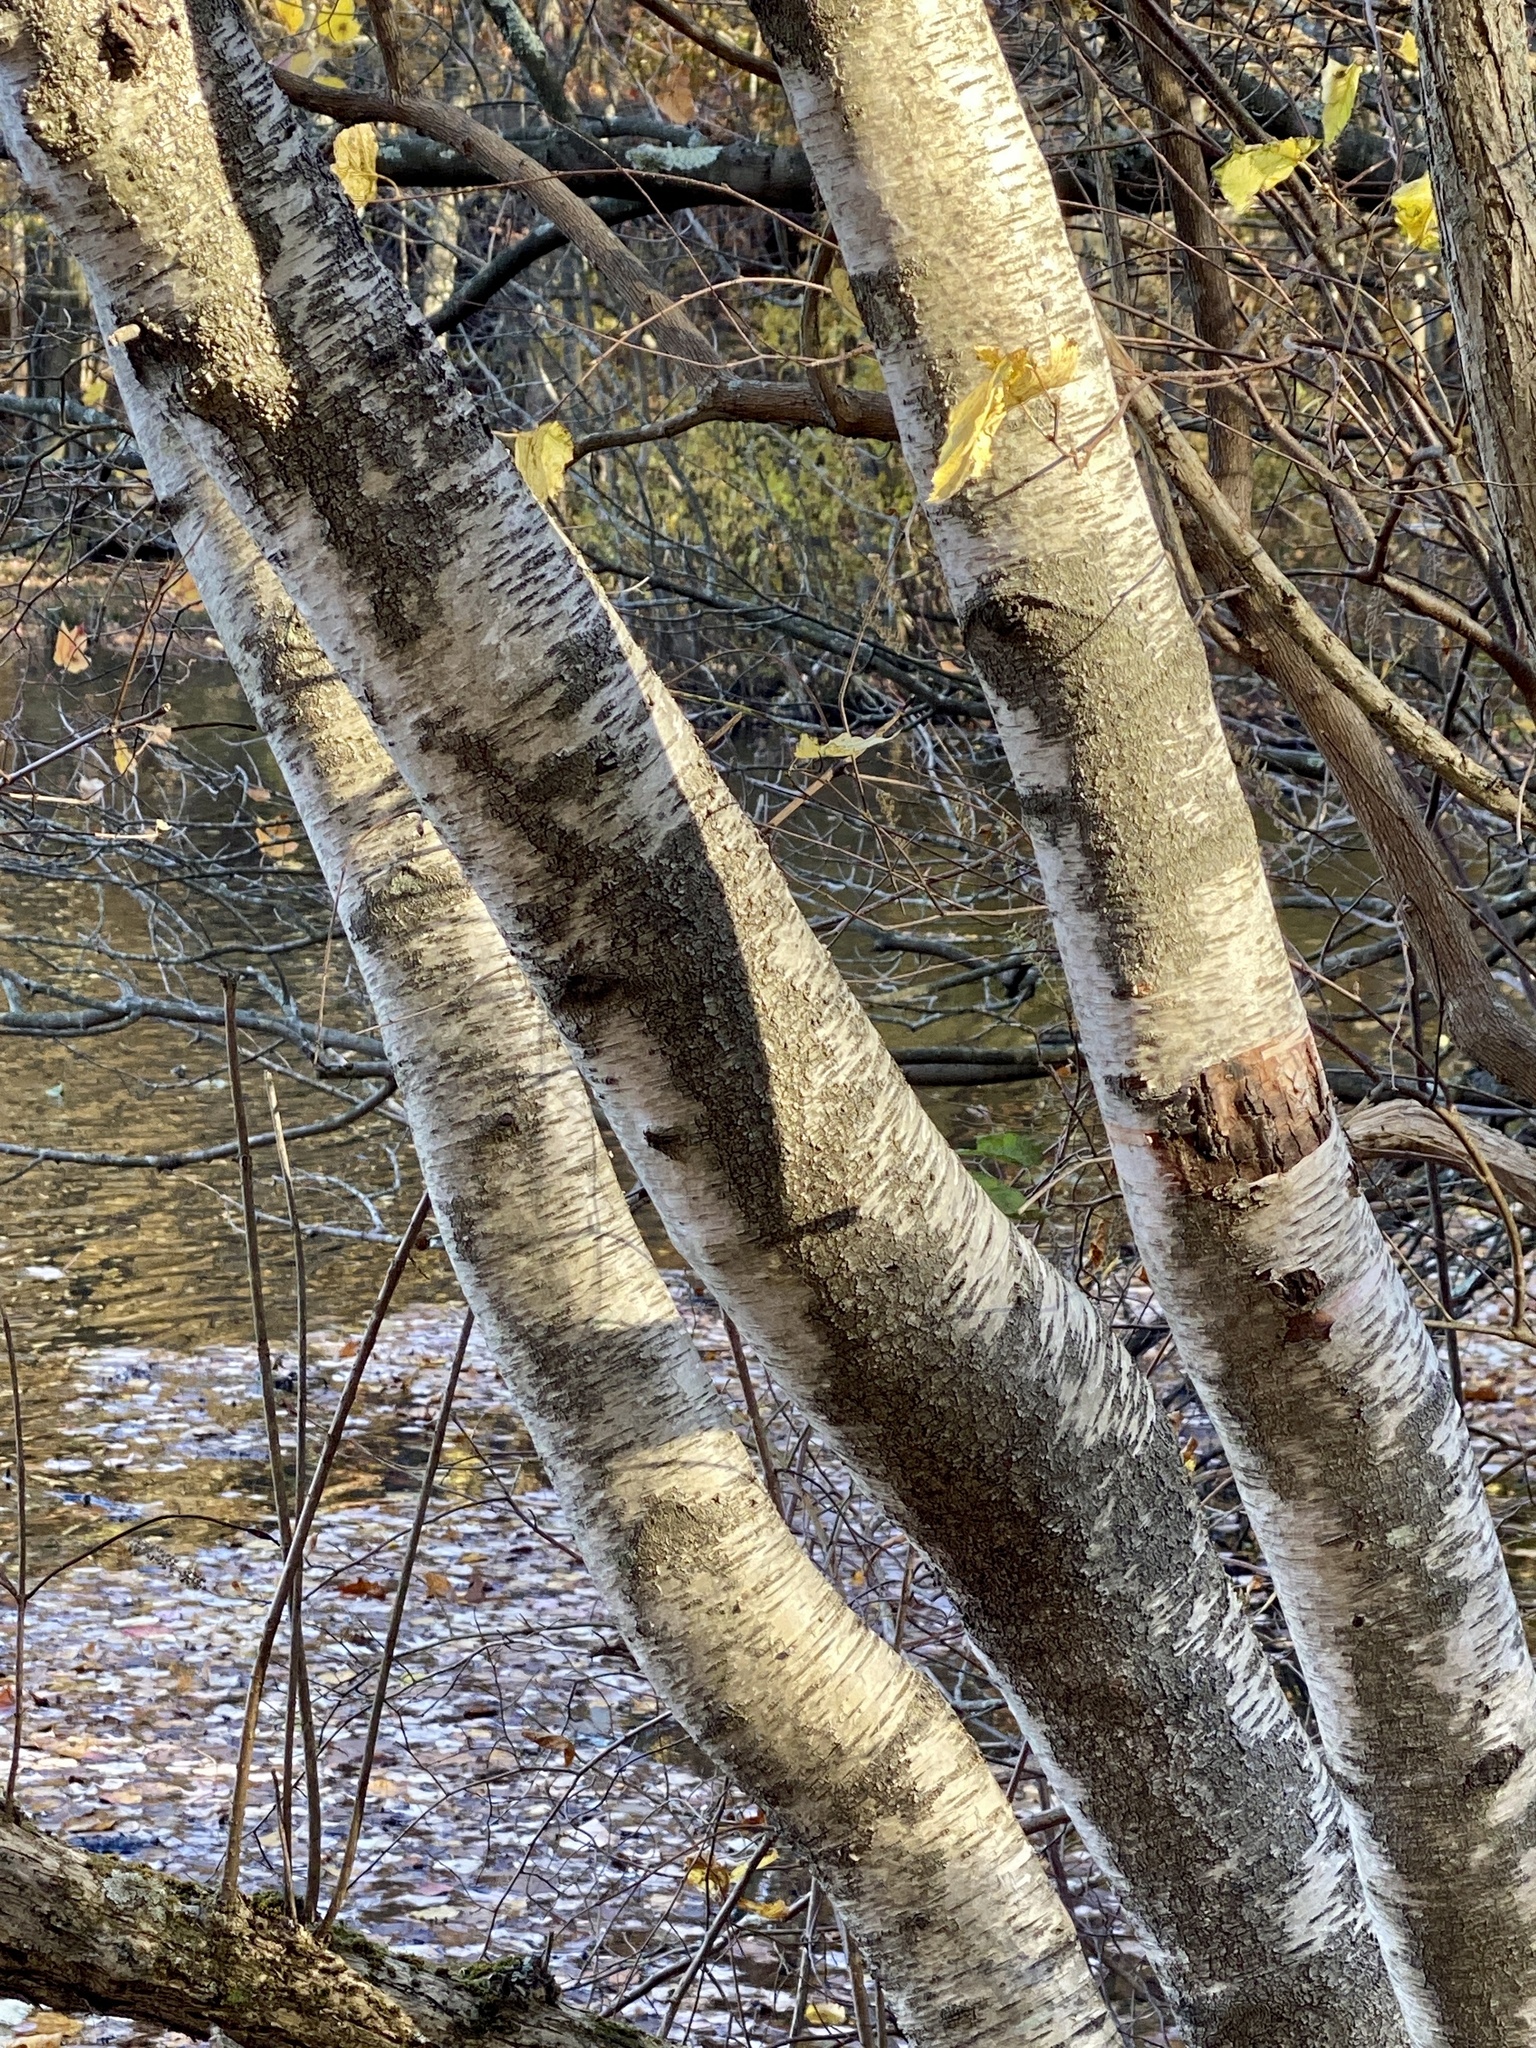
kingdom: Plantae
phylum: Tracheophyta
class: Magnoliopsida
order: Fagales
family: Betulaceae
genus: Betula
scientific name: Betula populifolia
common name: Fire birch
